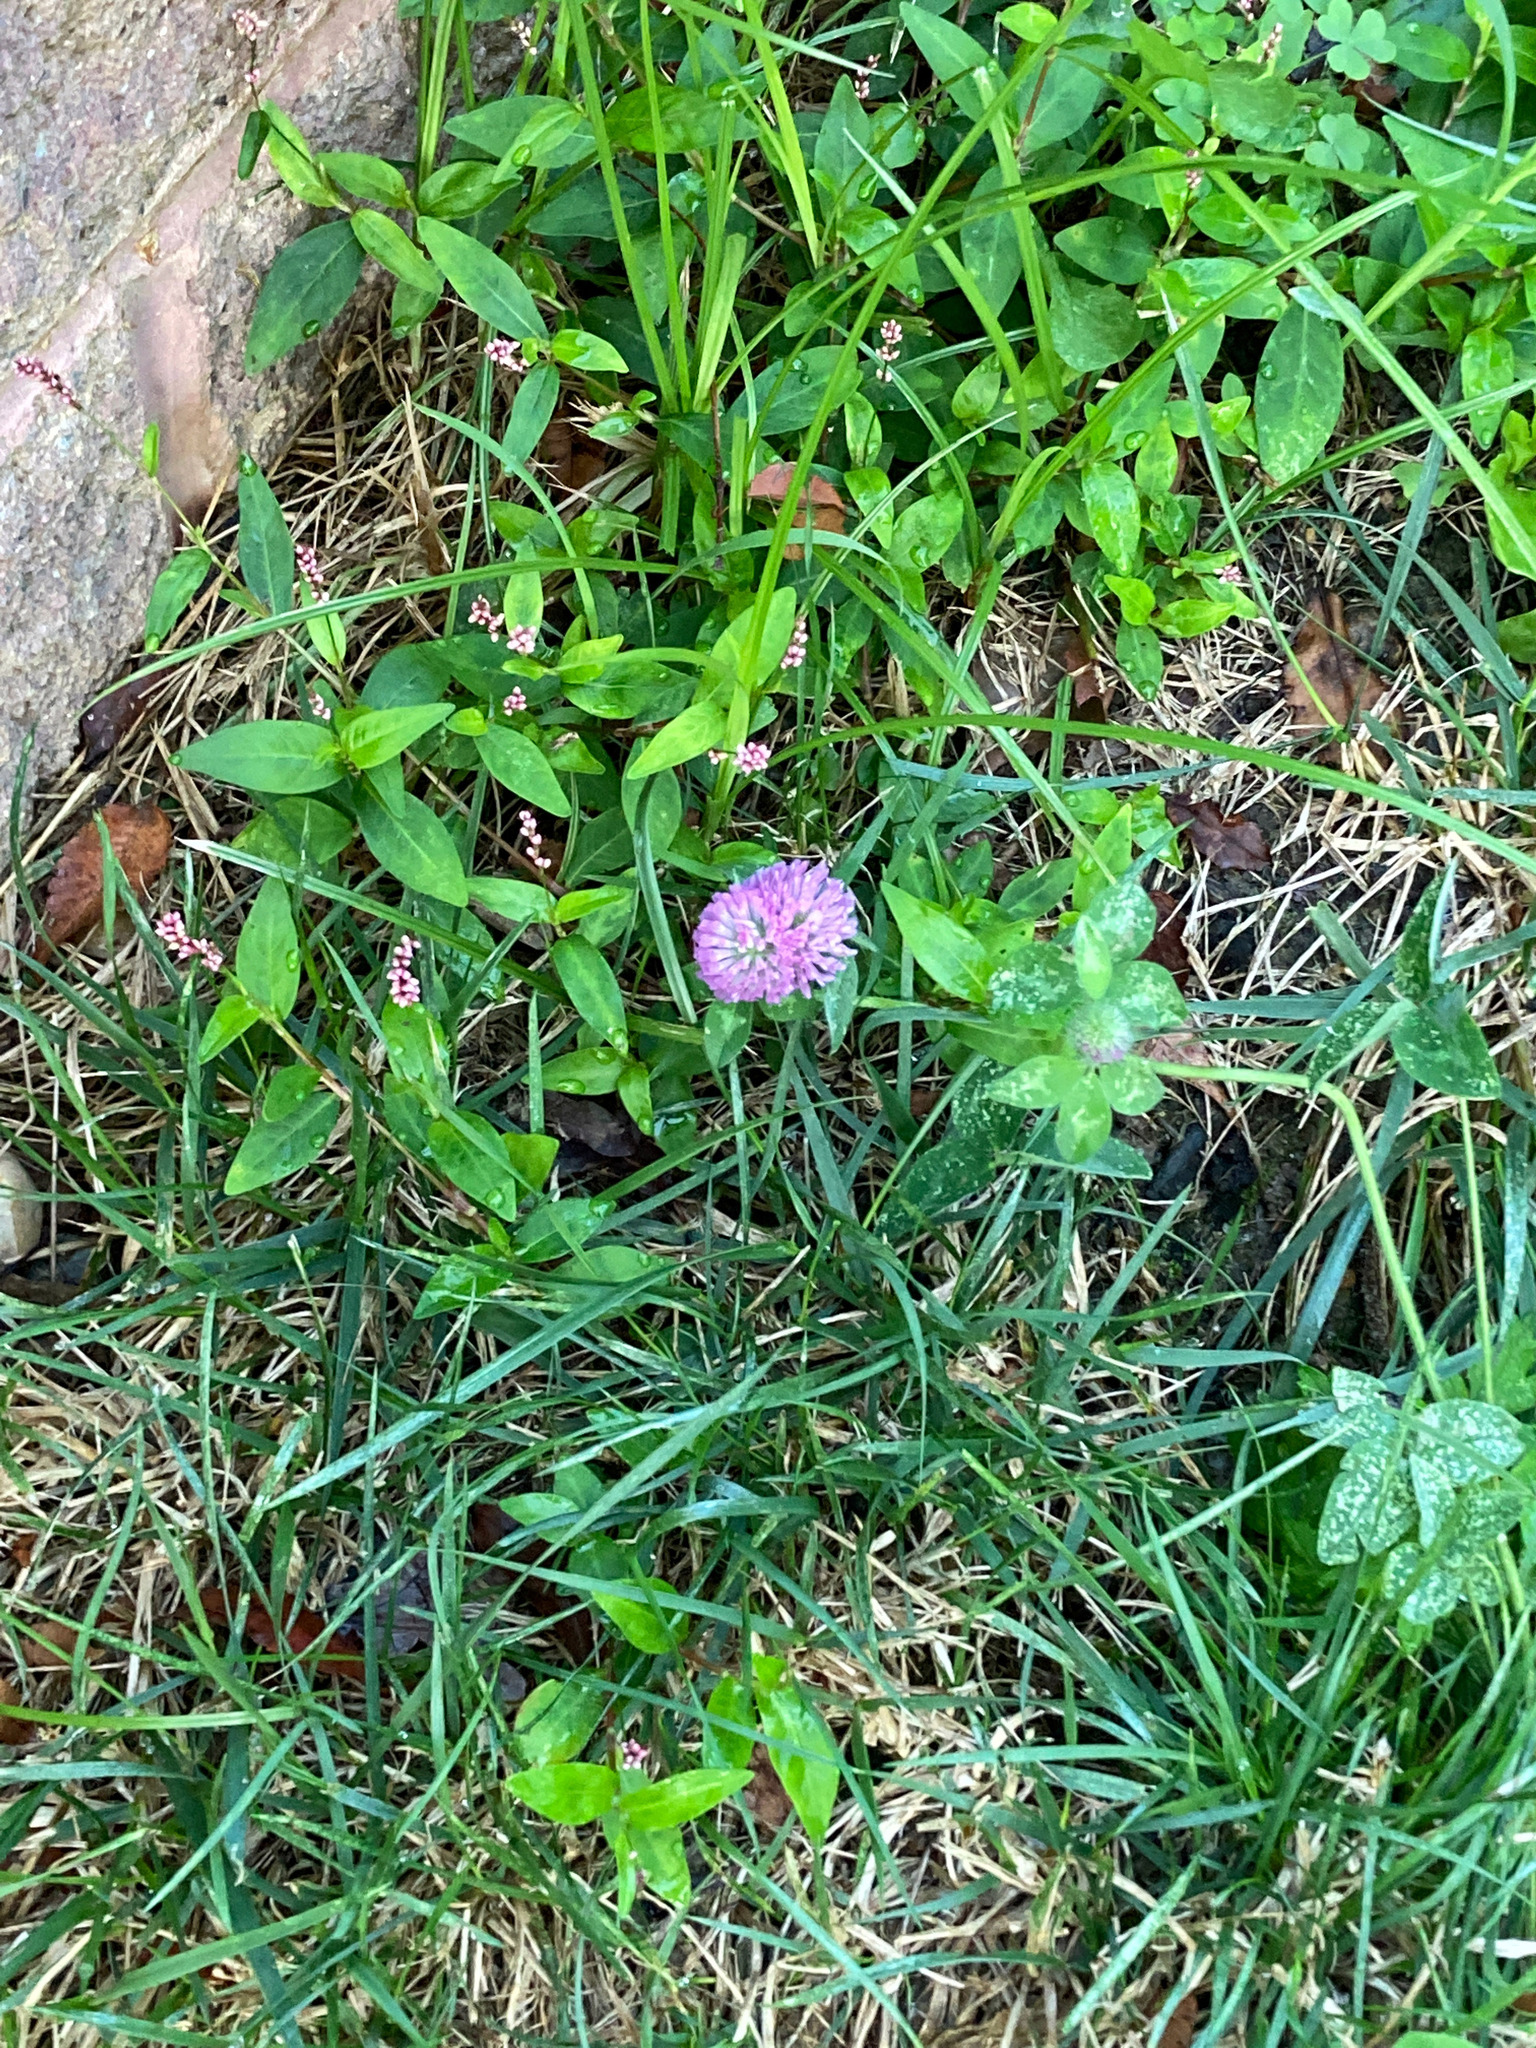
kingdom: Plantae
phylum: Tracheophyta
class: Magnoliopsida
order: Fabales
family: Fabaceae
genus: Trifolium
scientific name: Trifolium pratense
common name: Red clover
